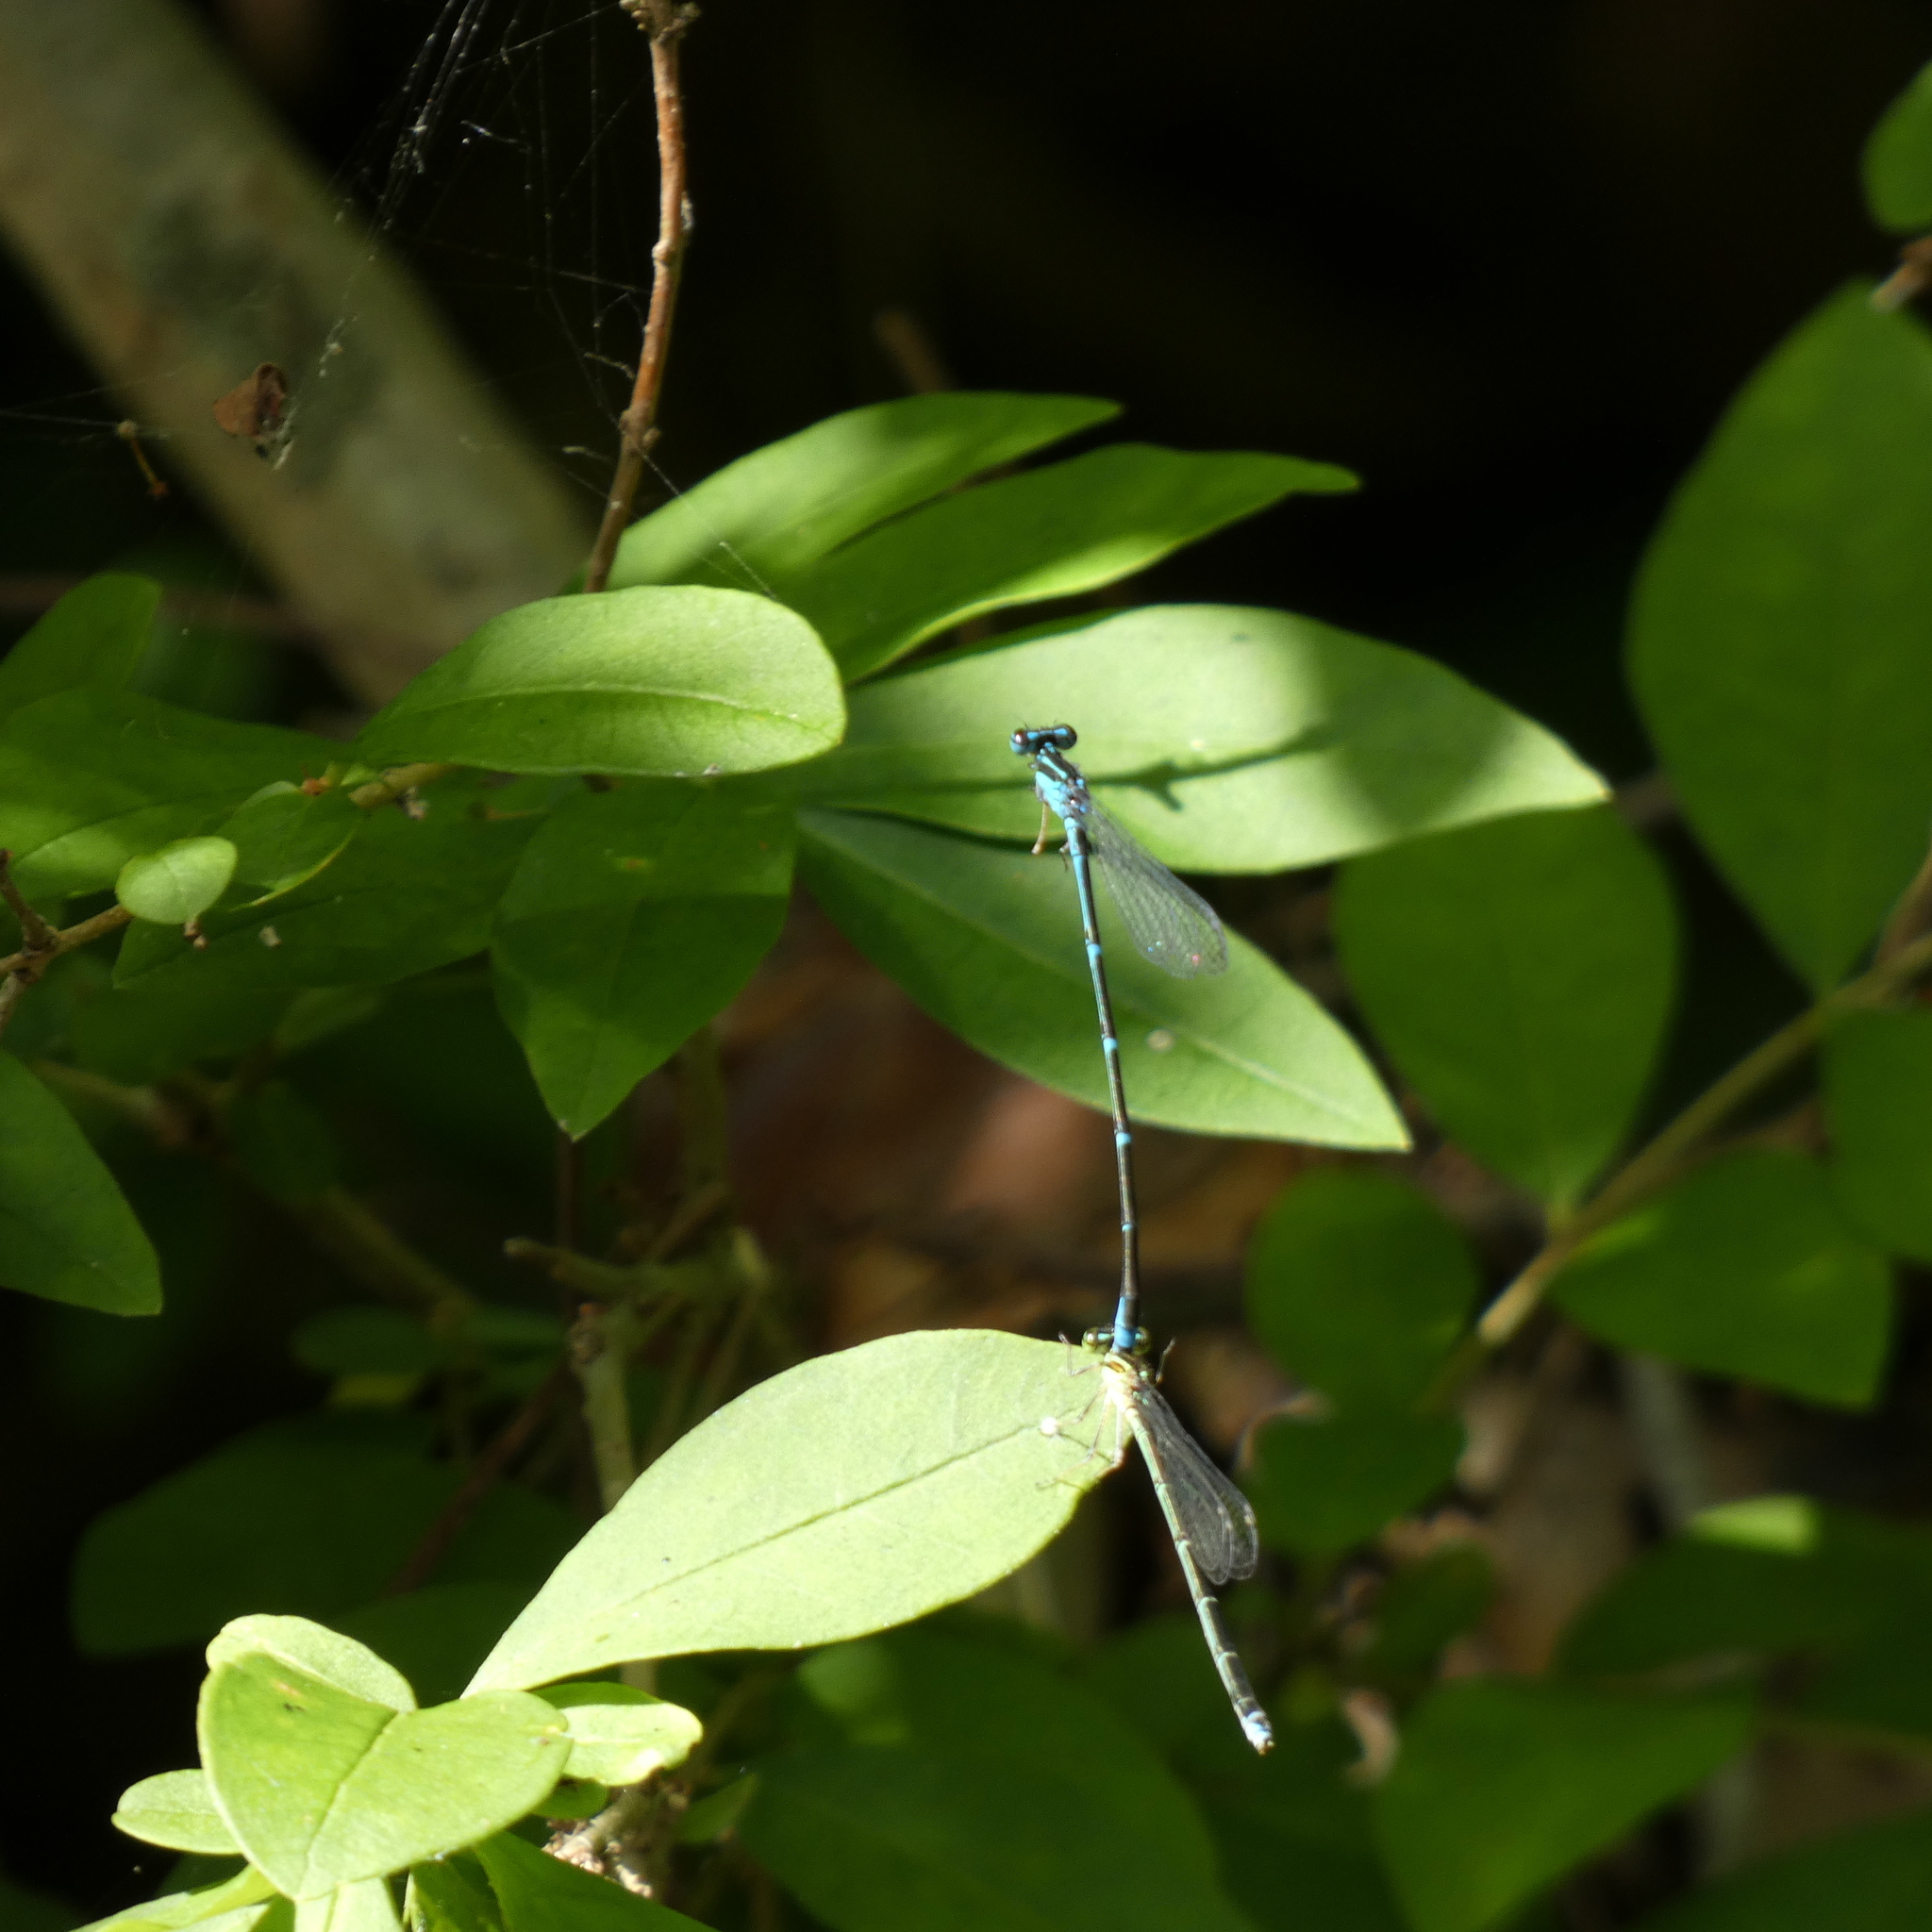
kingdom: Animalia
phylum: Arthropoda
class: Insecta
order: Odonata
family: Coenagrionidae
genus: Enallagma
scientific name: Enallagma exsulans
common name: Stream bluet
